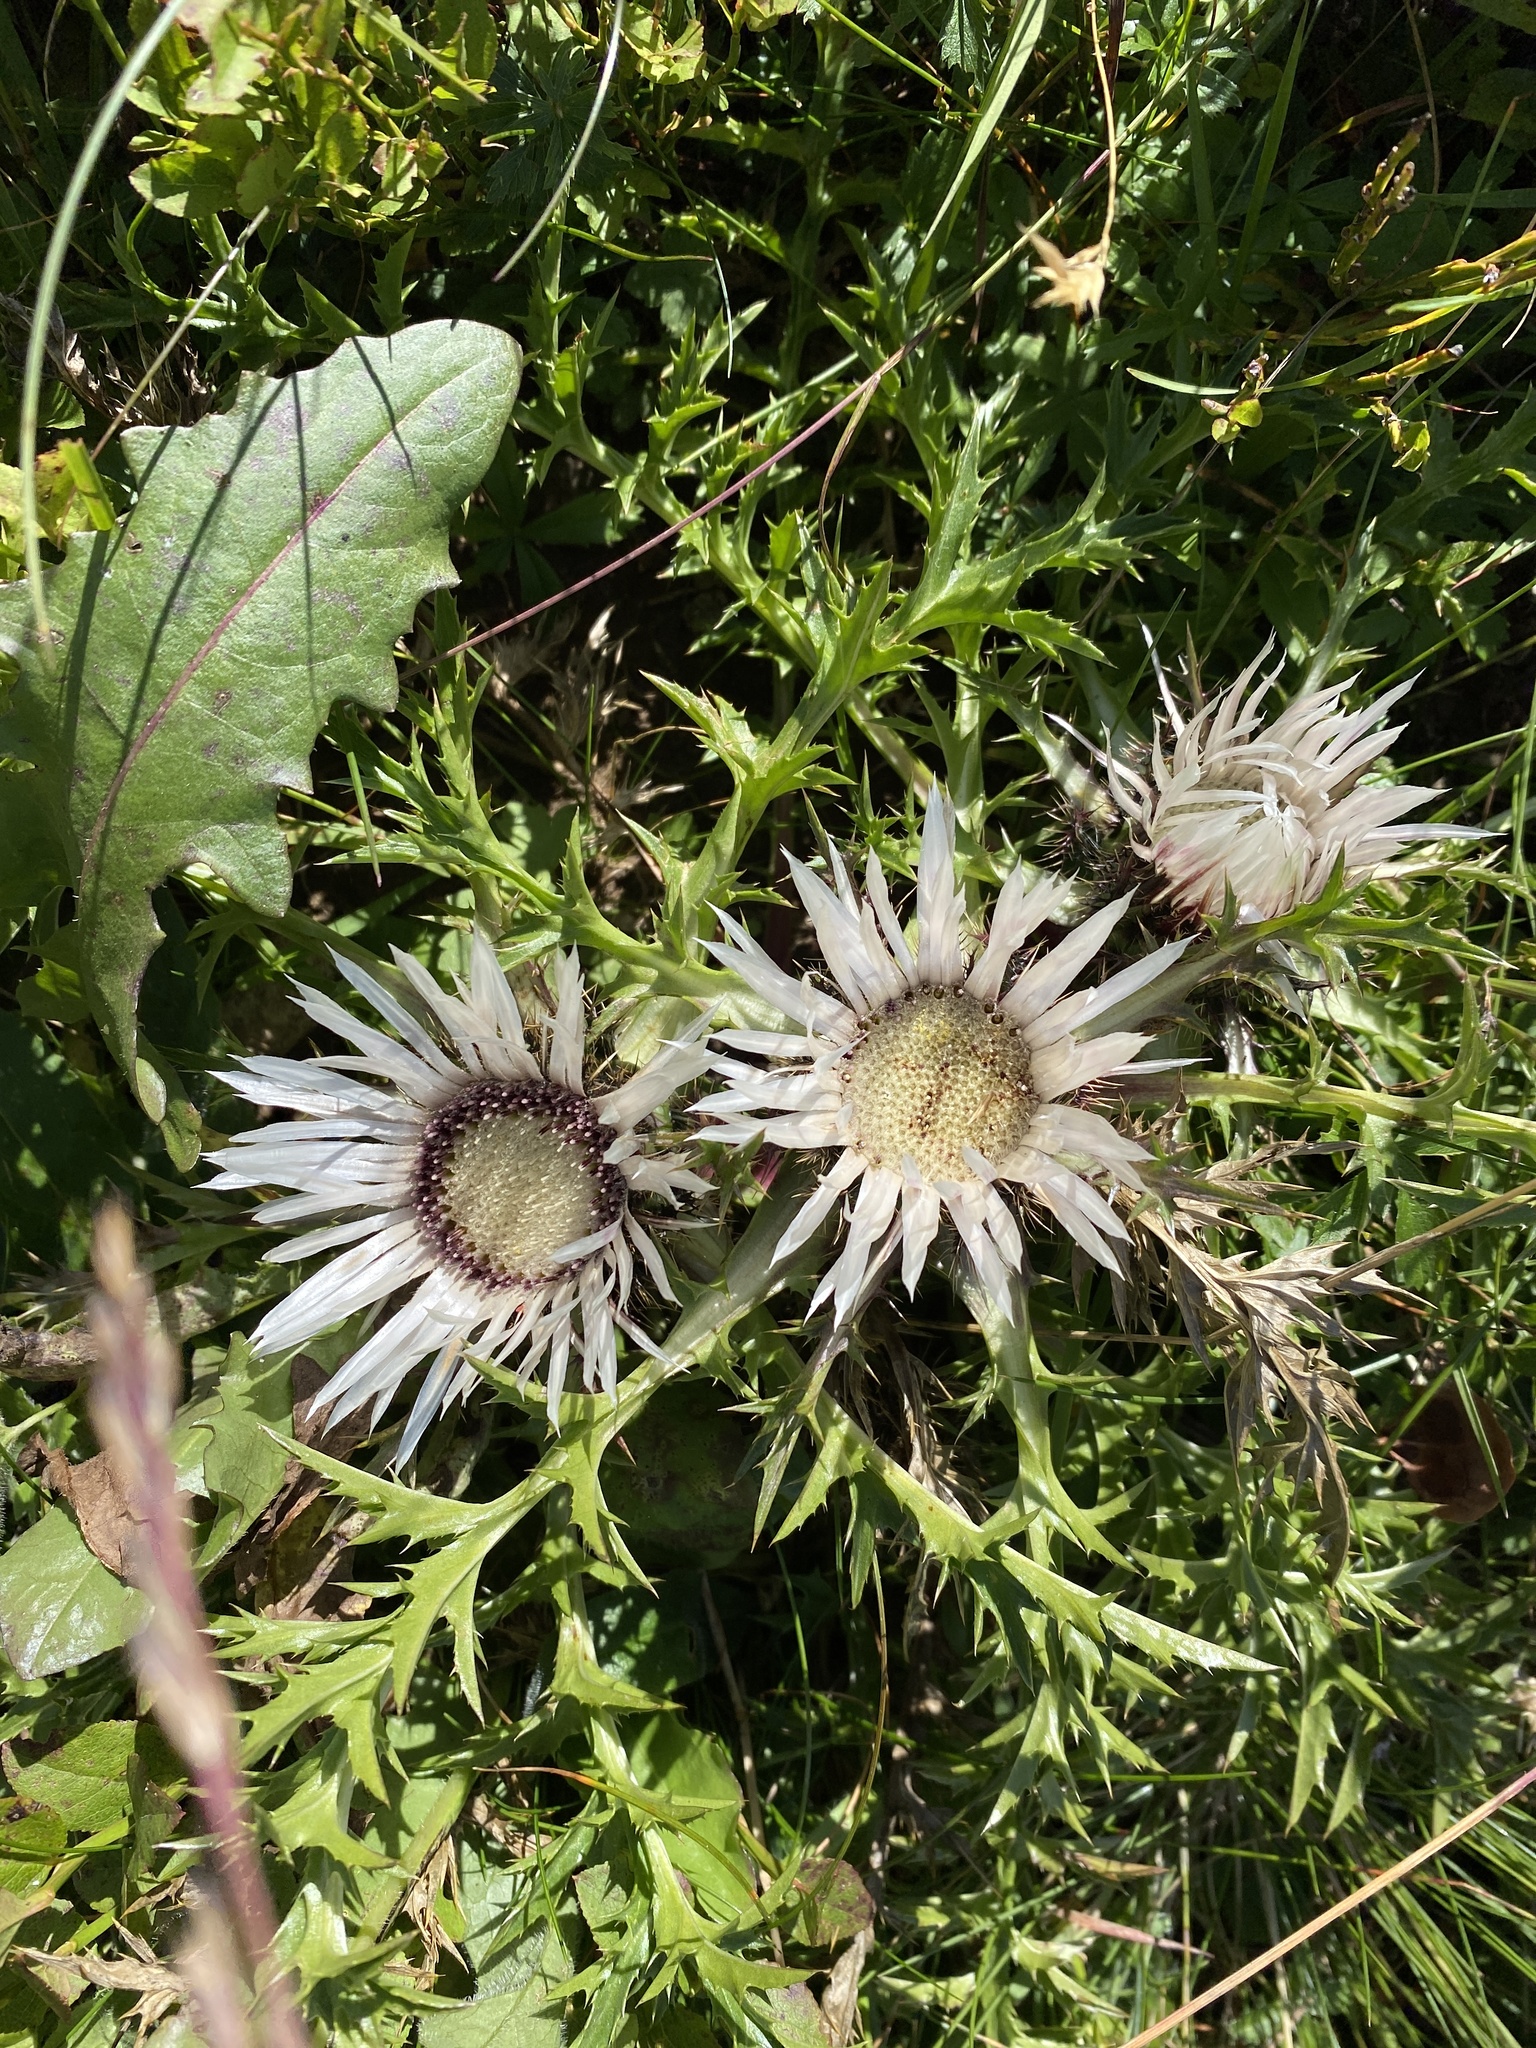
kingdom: Plantae
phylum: Tracheophyta
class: Magnoliopsida
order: Asterales
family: Asteraceae
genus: Carlina
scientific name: Carlina acaulis
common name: Stemless carline thistle
